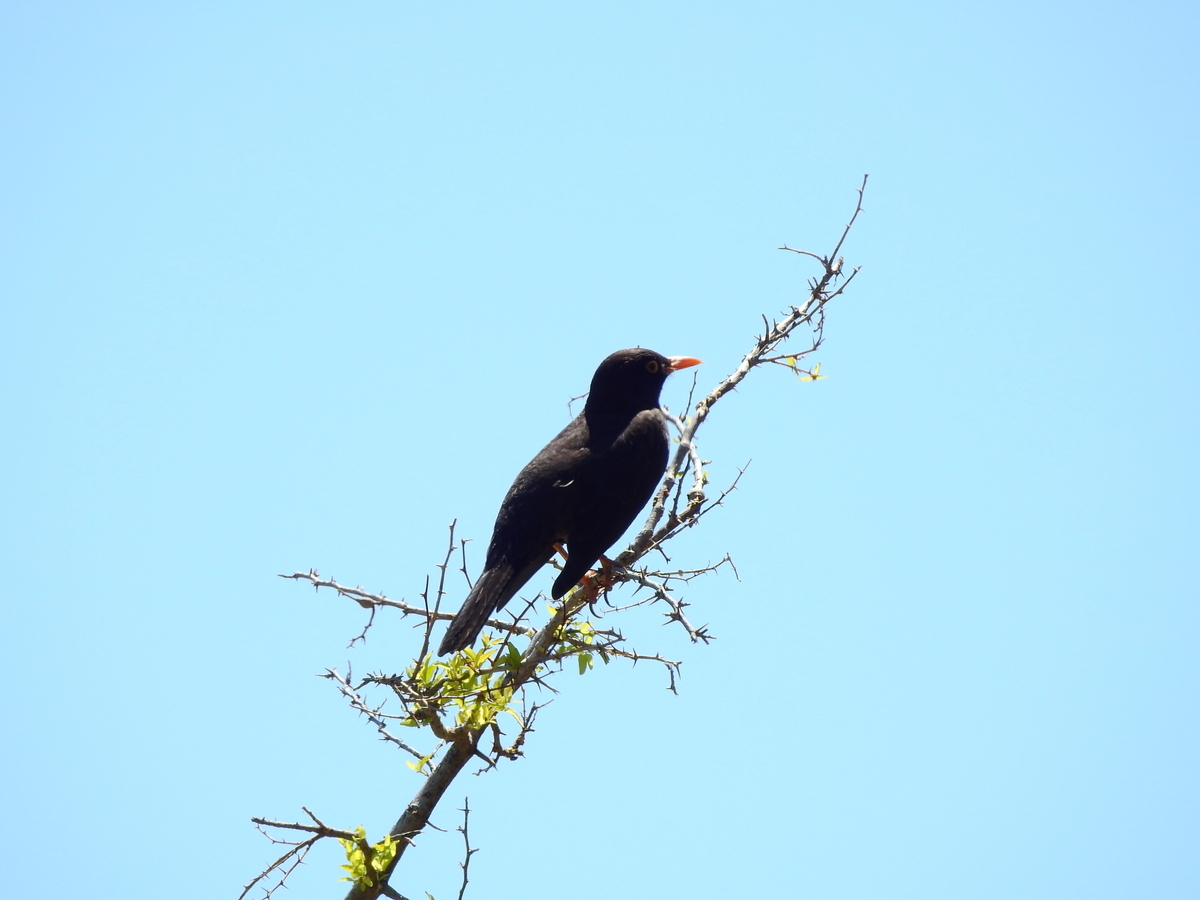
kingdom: Animalia
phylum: Chordata
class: Aves
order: Passeriformes
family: Turdidae
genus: Turdus
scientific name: Turdus chiguanco
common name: Chiguanco thrush
